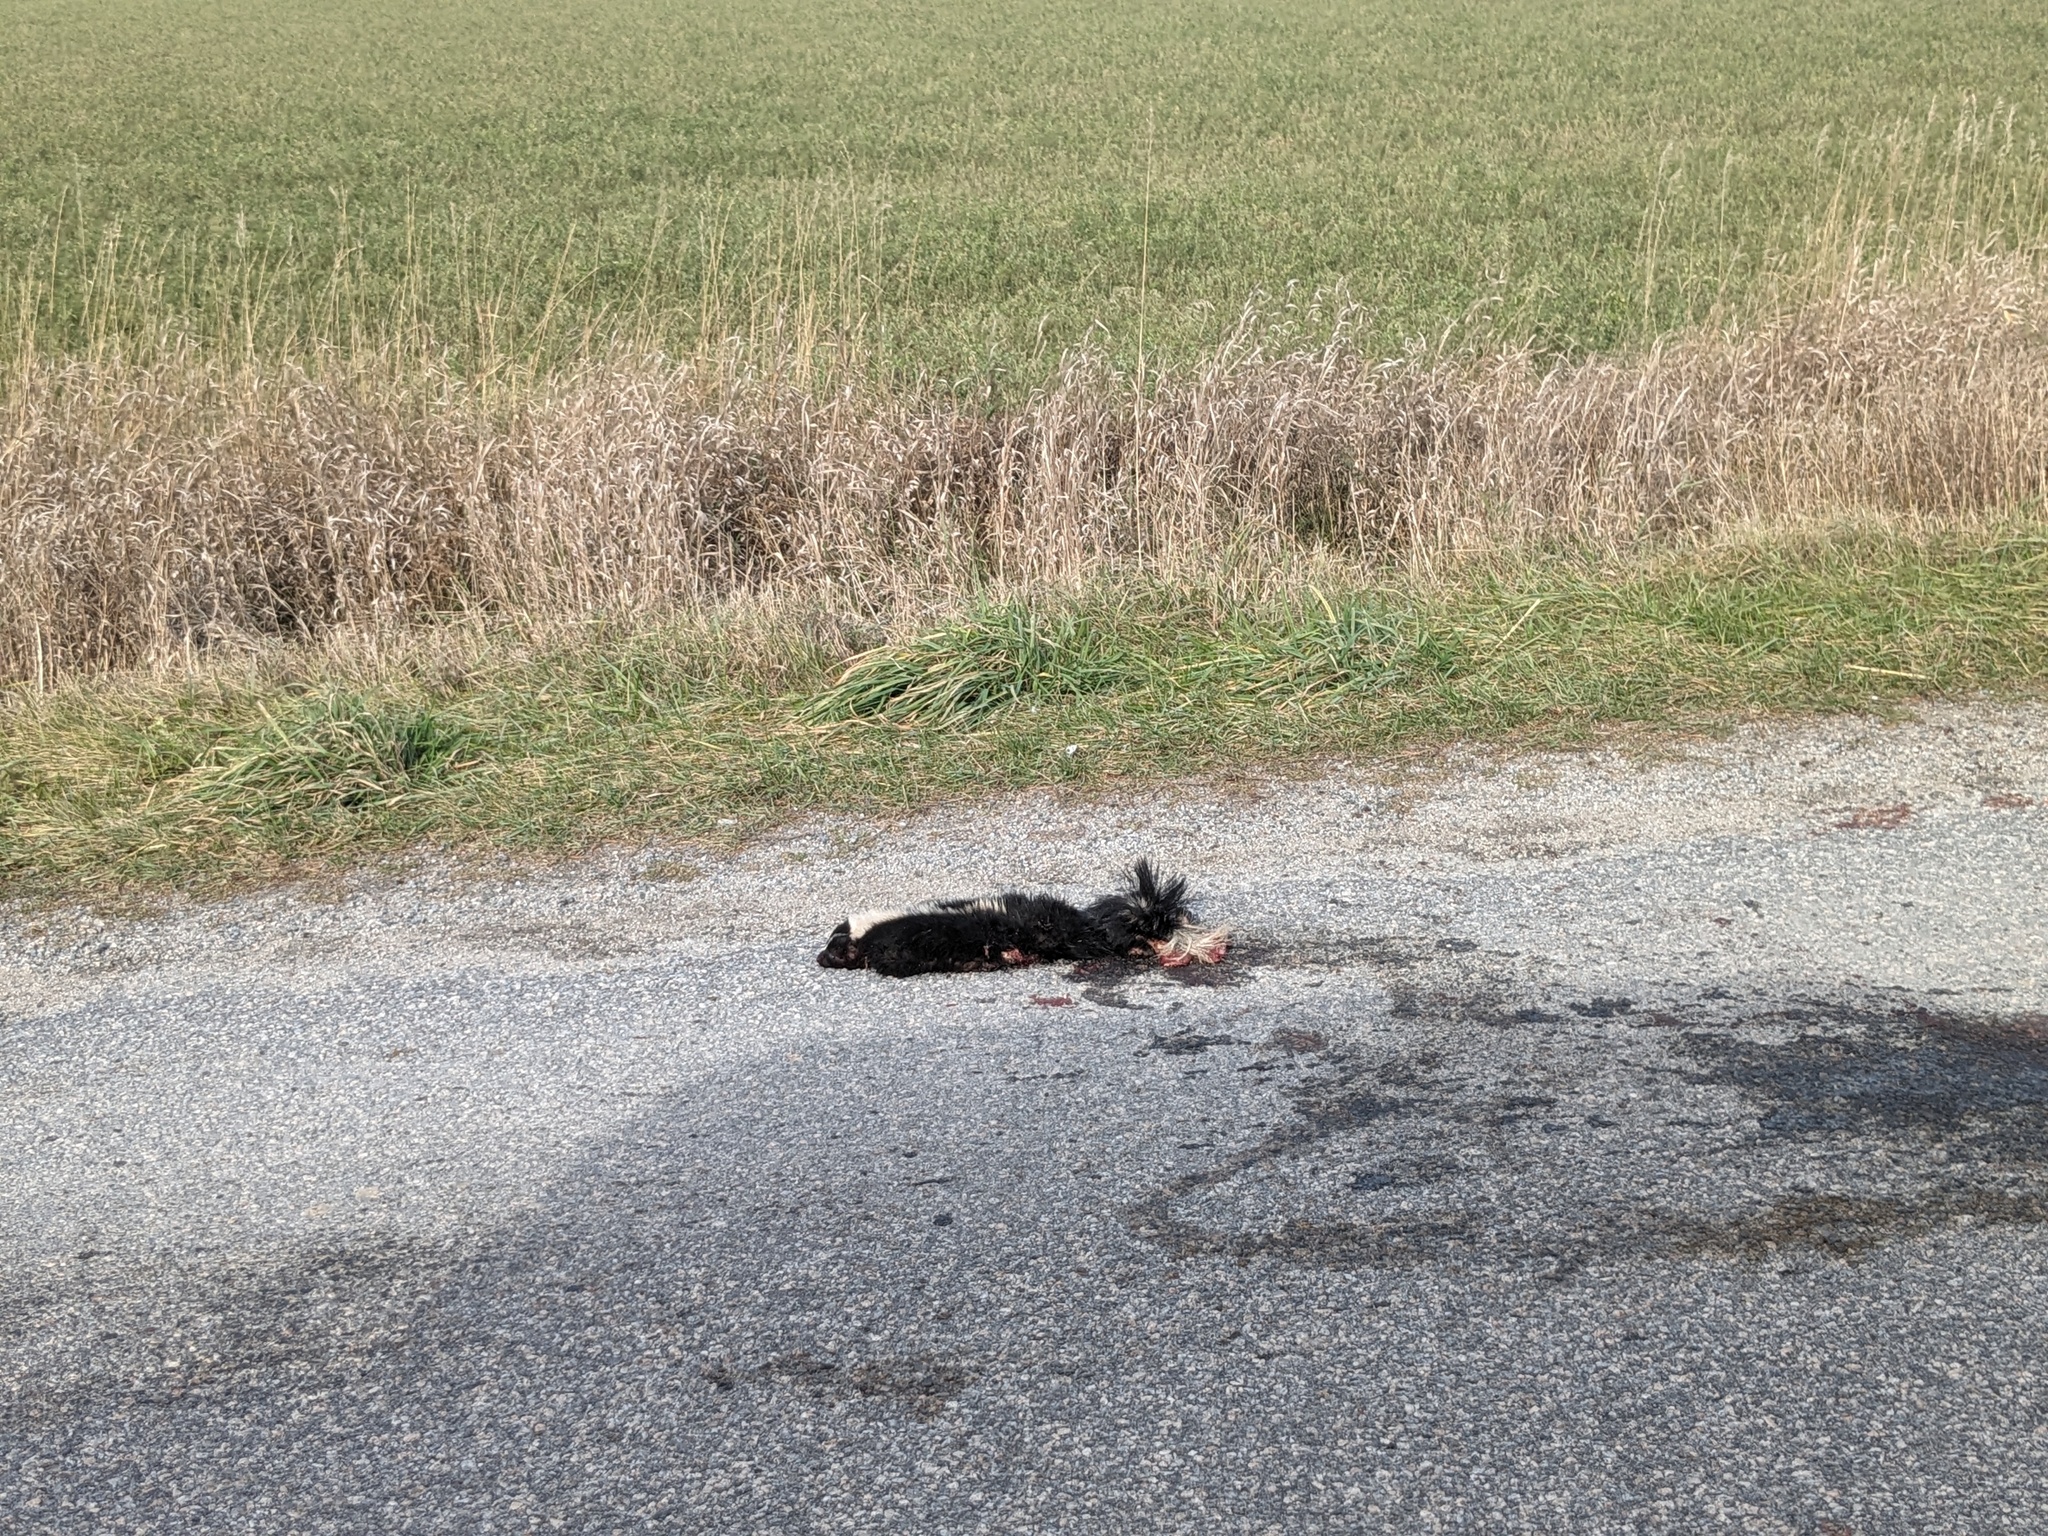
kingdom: Animalia
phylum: Chordata
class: Mammalia
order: Carnivora
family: Mephitidae
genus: Mephitis
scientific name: Mephitis mephitis
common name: Striped skunk
